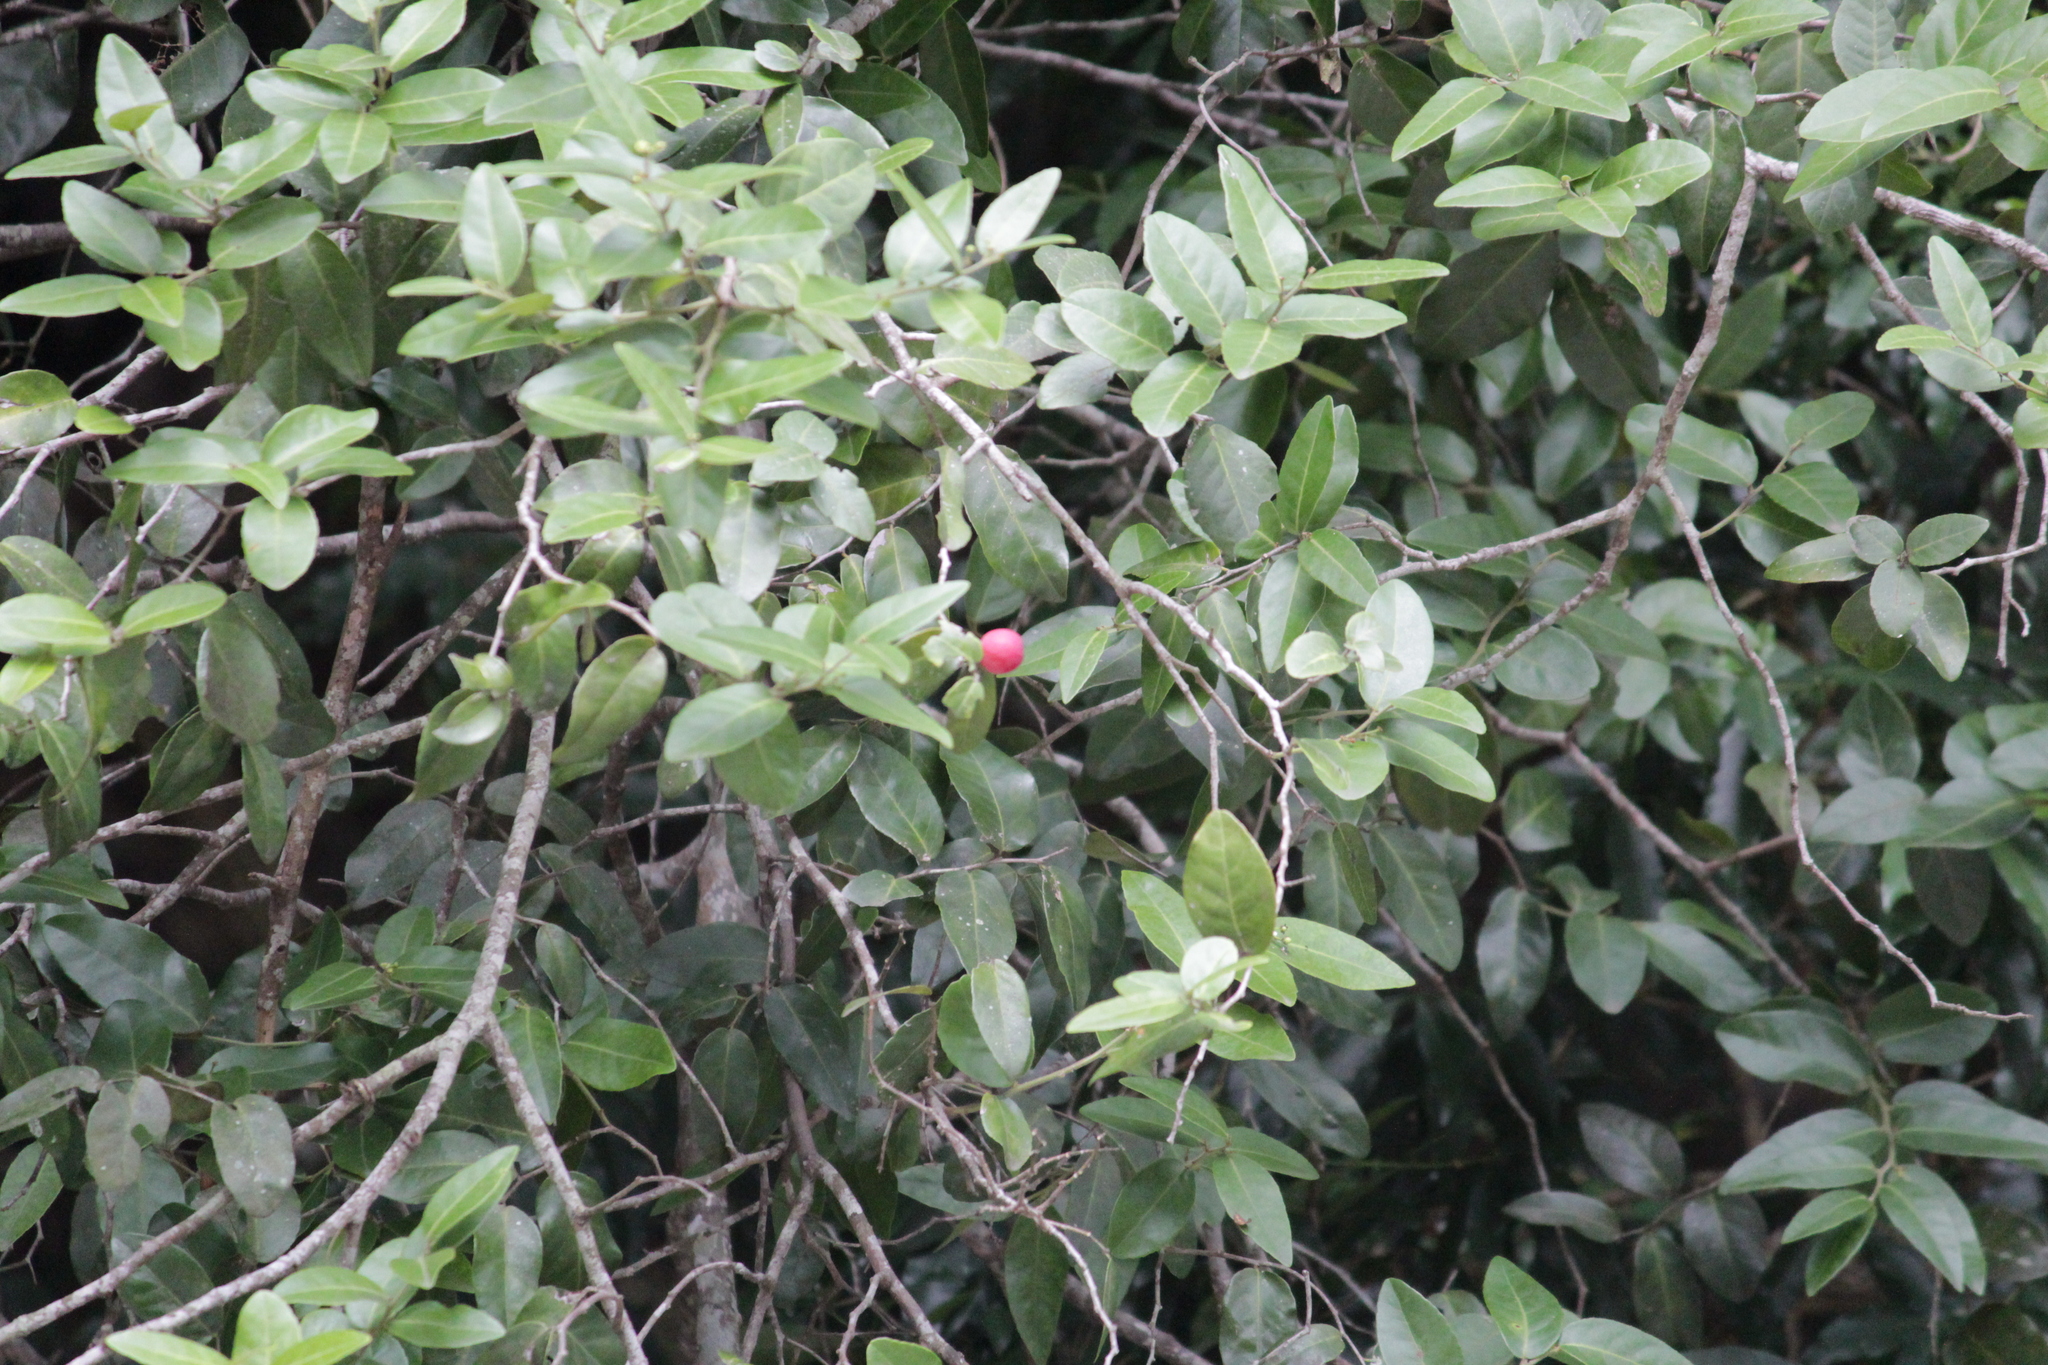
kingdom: Plantae
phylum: Tracheophyta
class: Magnoliopsida
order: Celastrales
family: Celastraceae
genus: Allocassine
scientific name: Allocassine laurifolia
